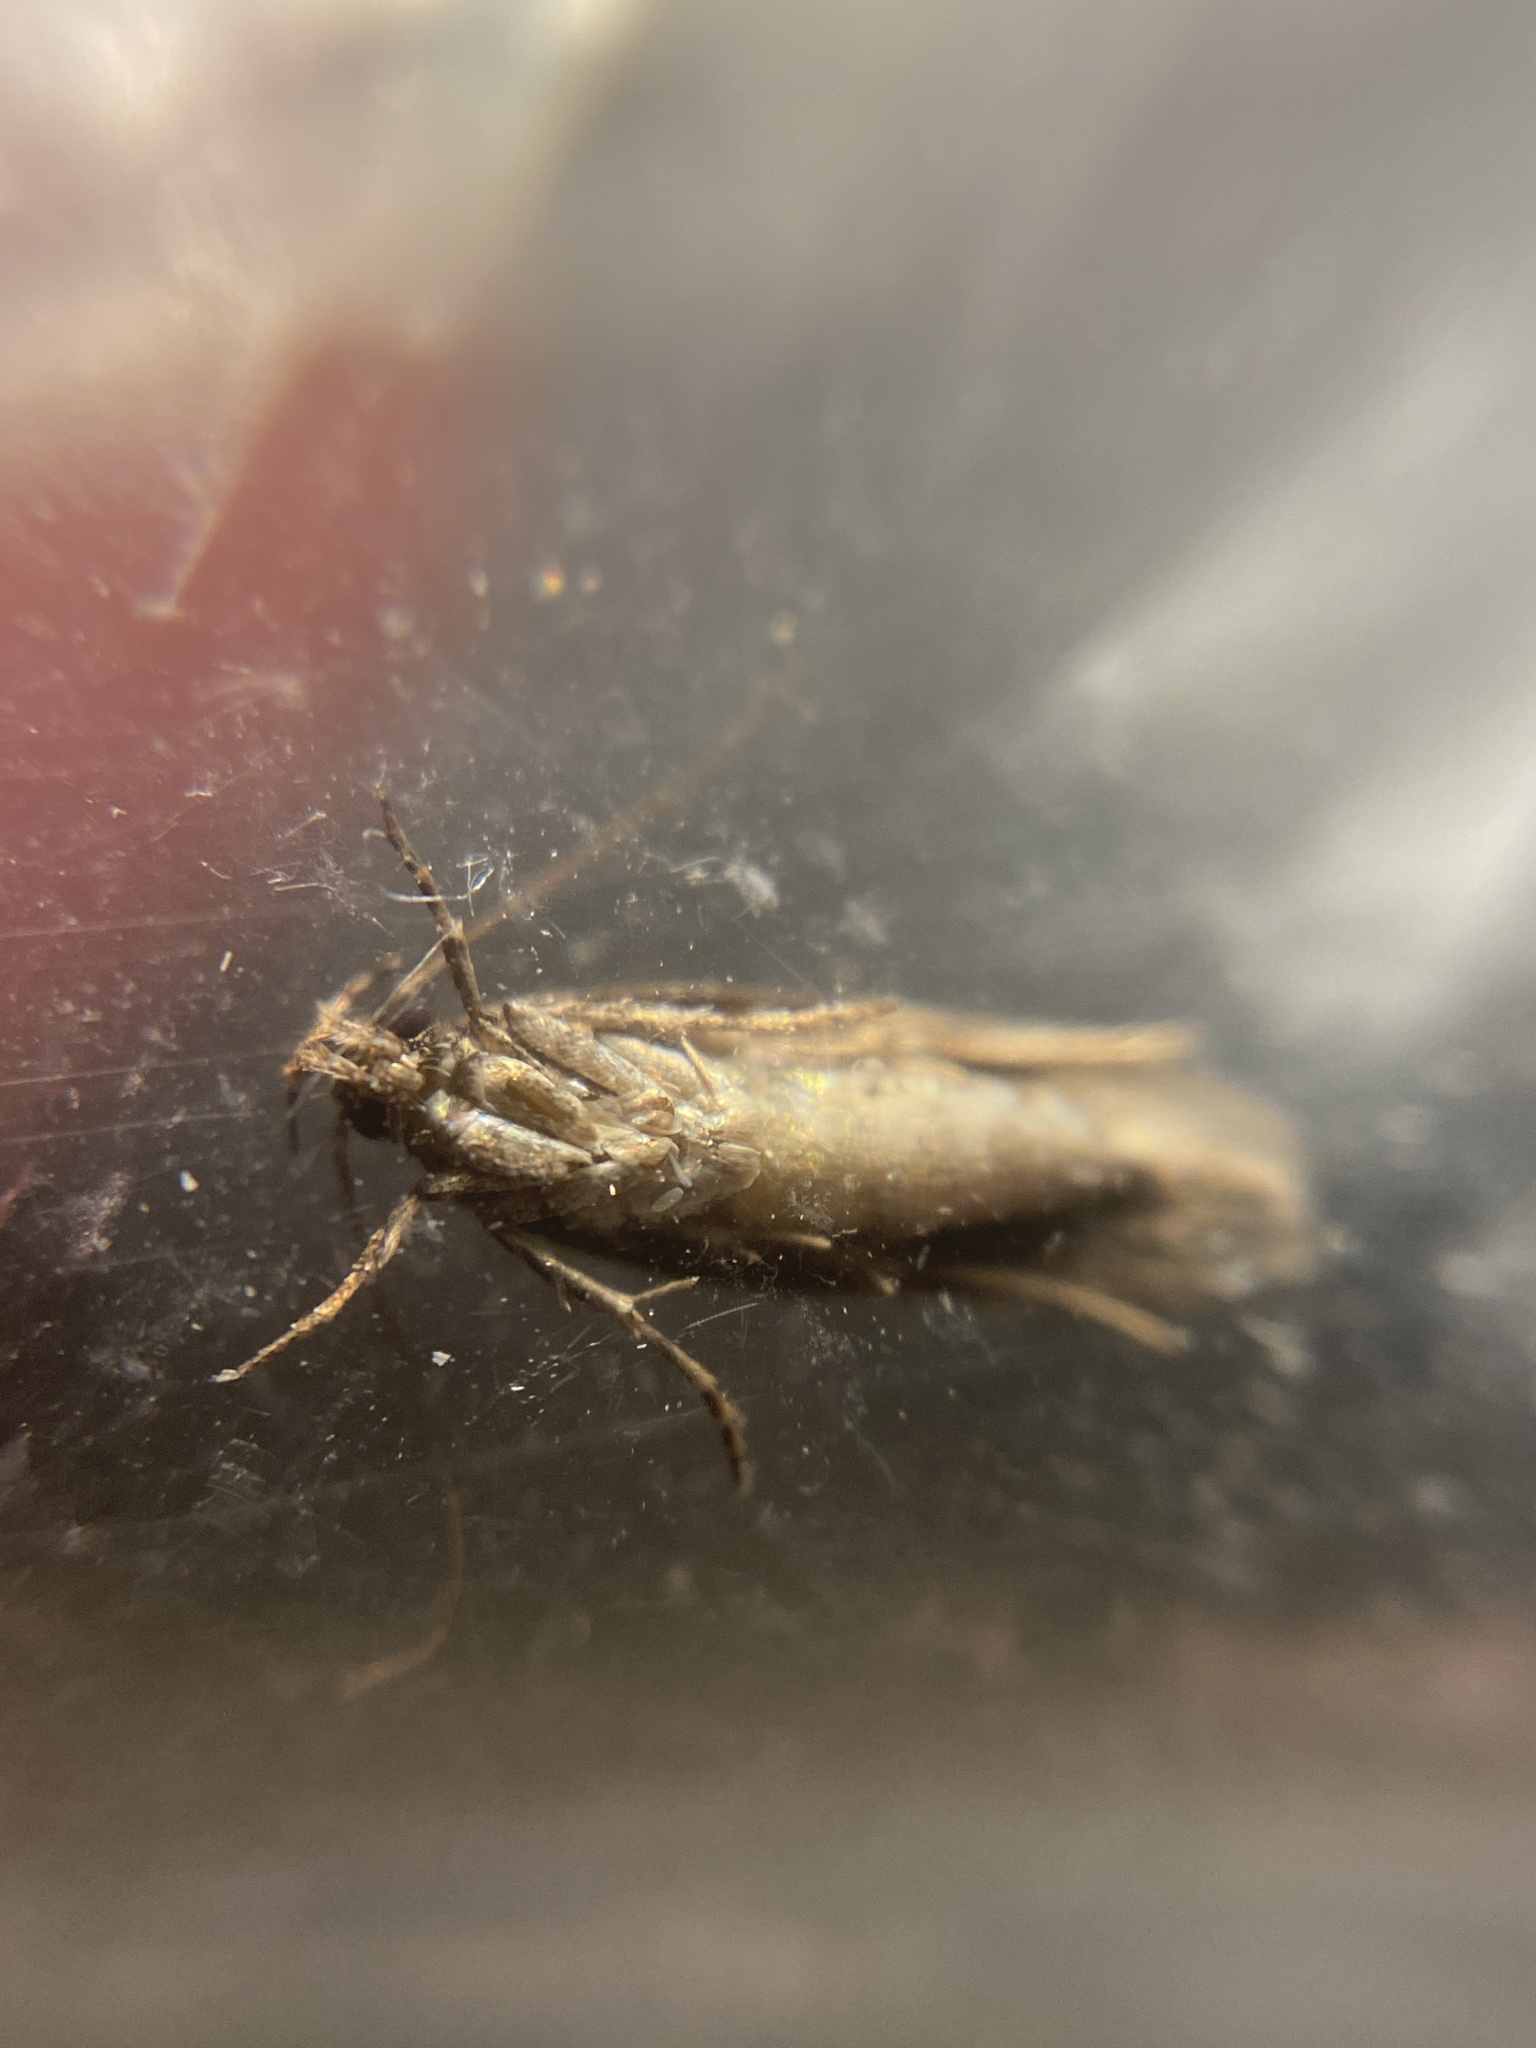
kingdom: Animalia
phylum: Arthropoda
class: Insecta
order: Lepidoptera
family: Gelechiidae
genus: Carpatolechia
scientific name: Carpatolechia decorella
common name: Winter oak groundling
